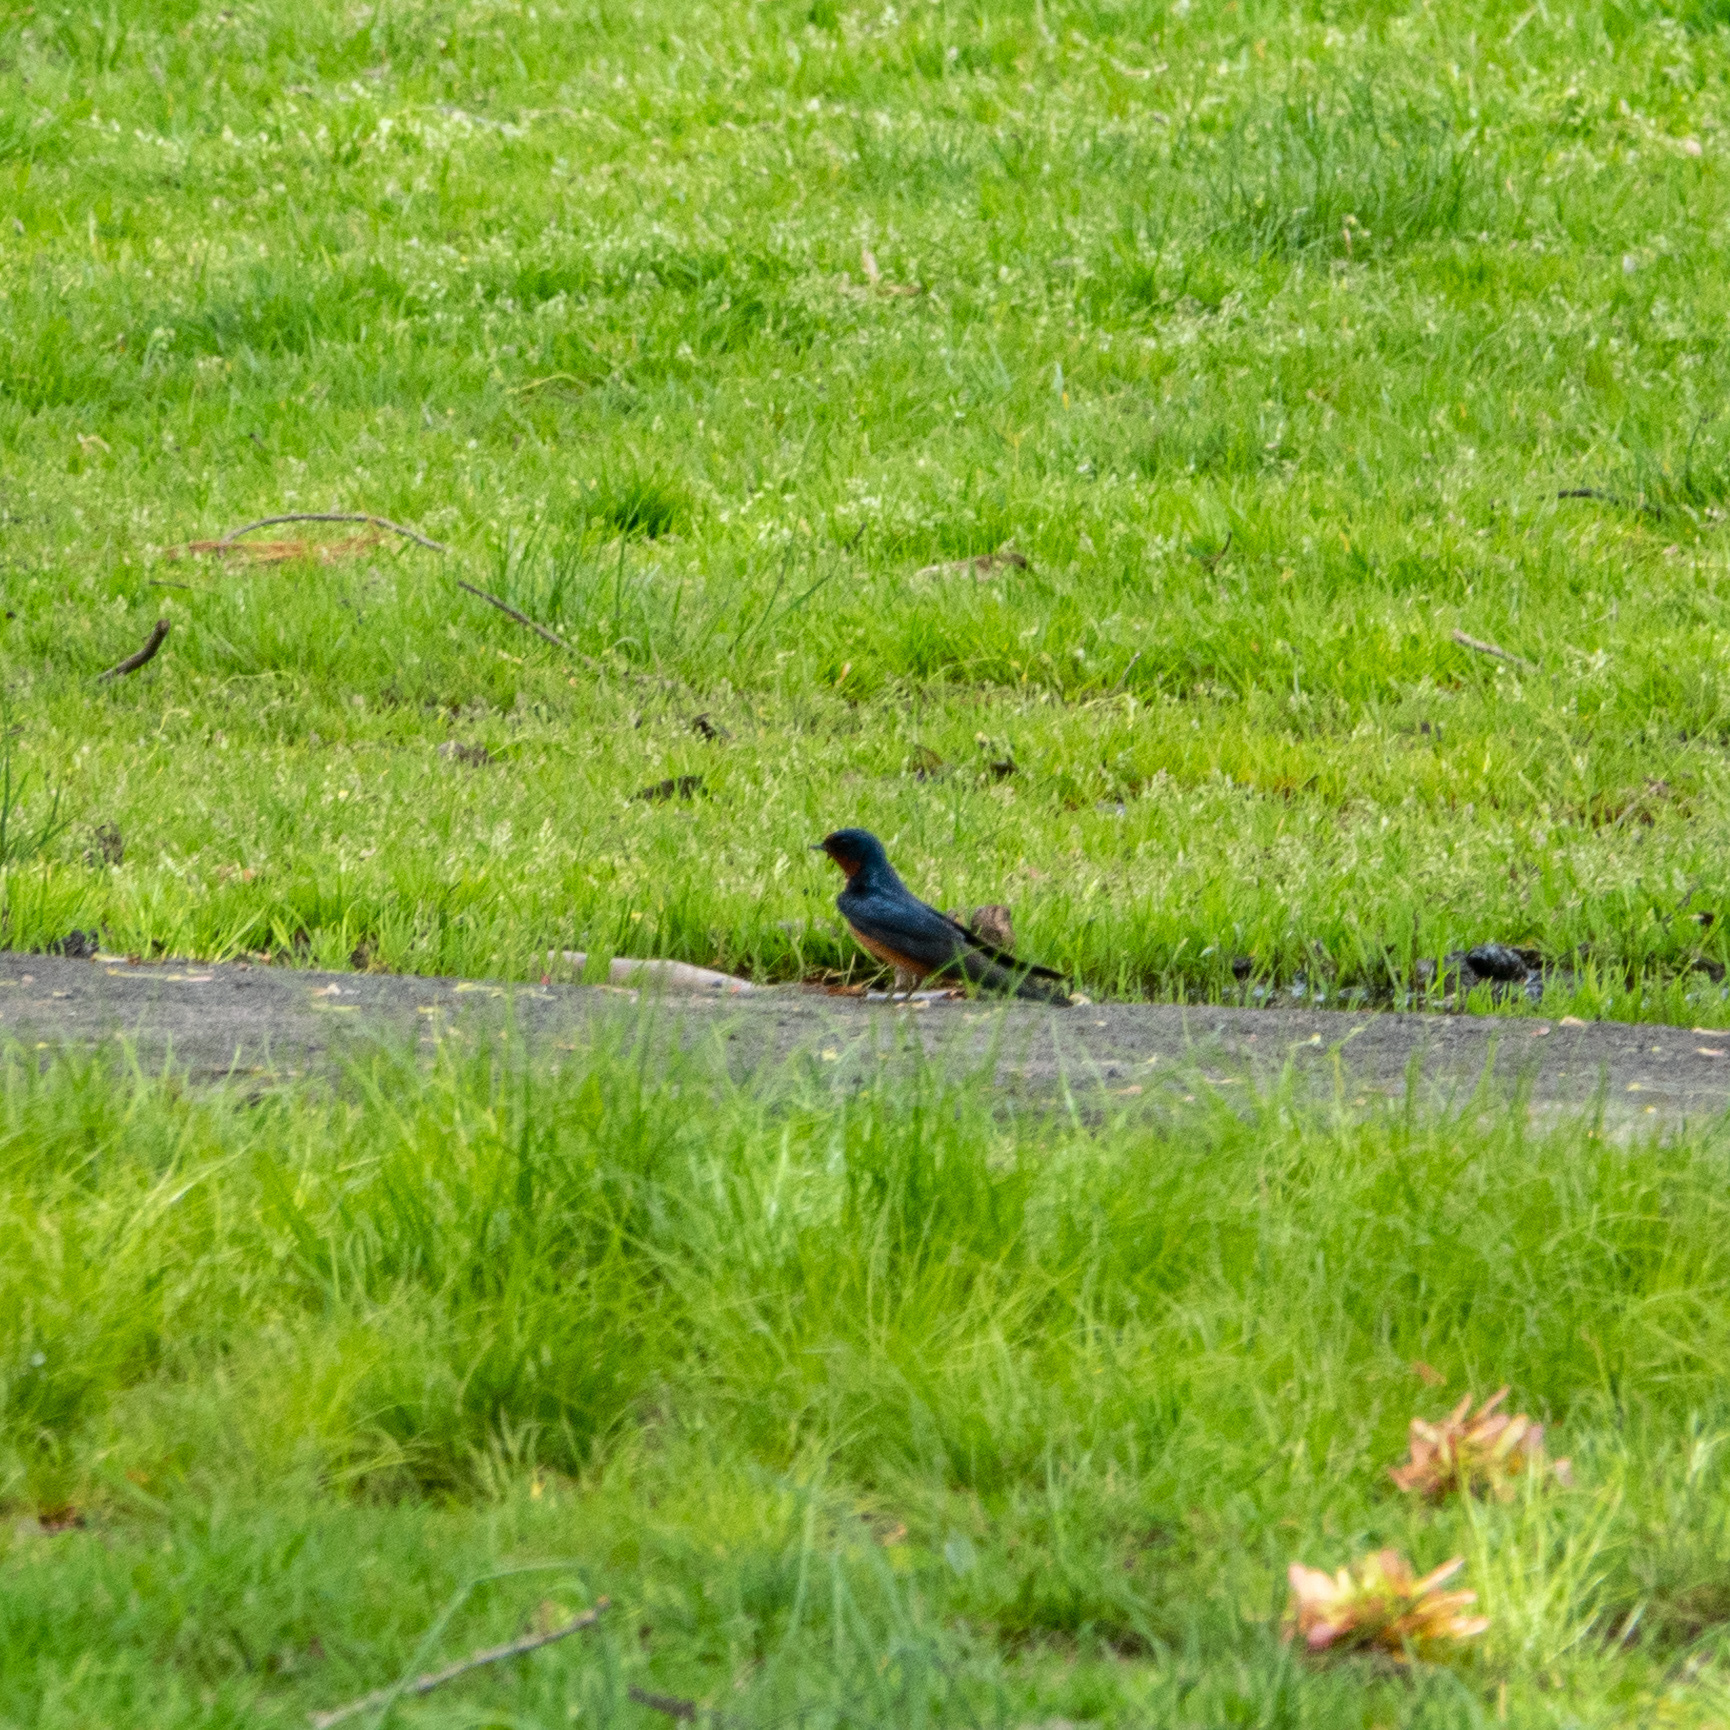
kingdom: Animalia
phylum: Chordata
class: Aves
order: Passeriformes
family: Hirundinidae
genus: Hirundo
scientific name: Hirundo rustica
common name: Barn swallow
